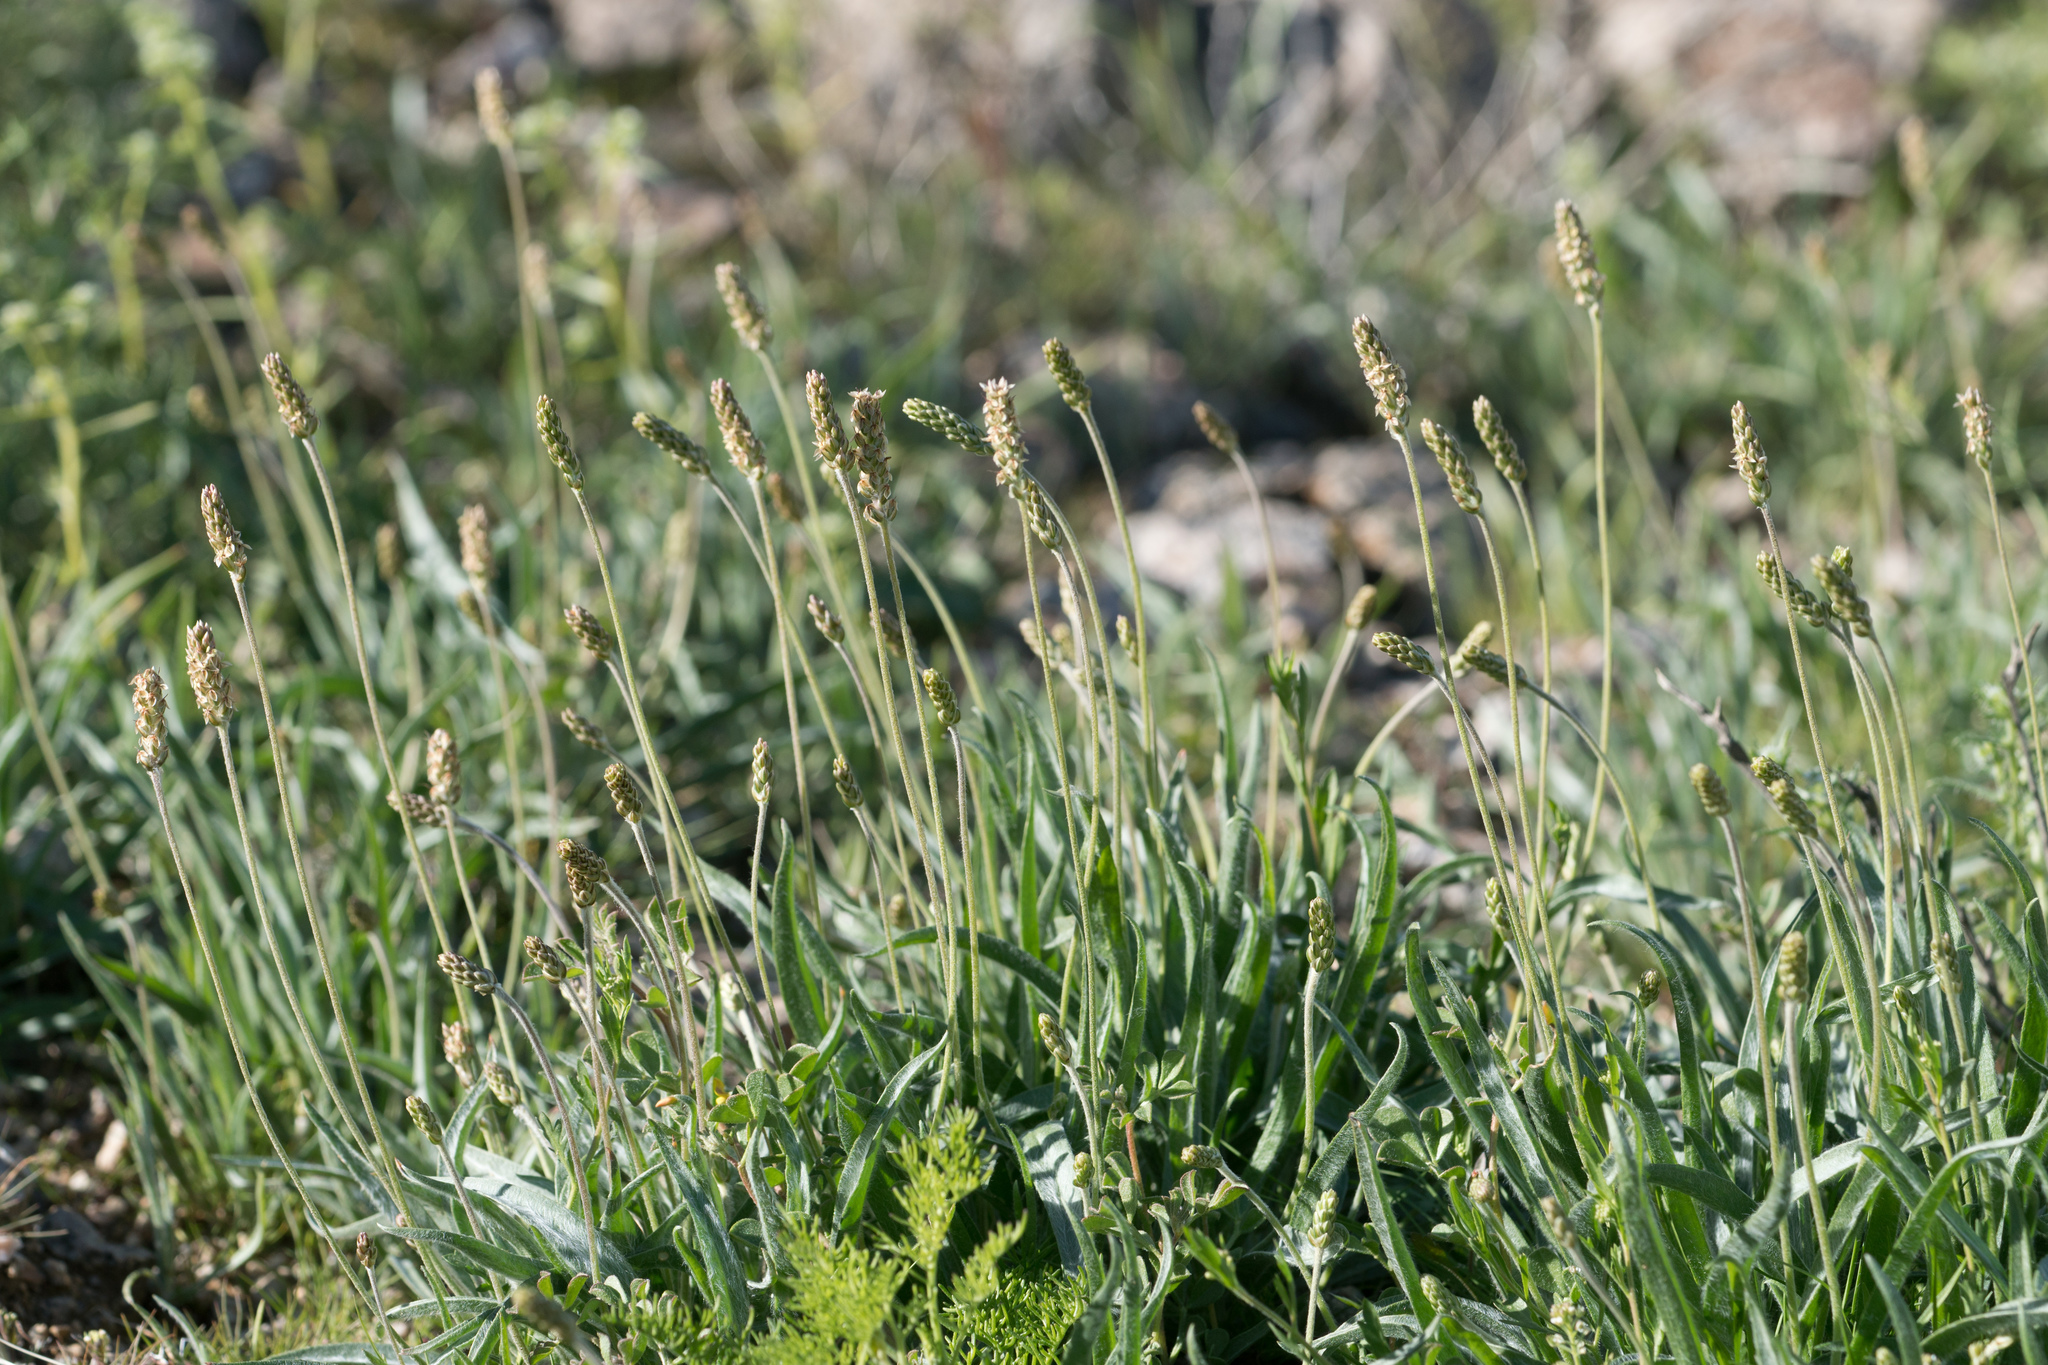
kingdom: Plantae
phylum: Tracheophyta
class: Magnoliopsida
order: Lamiales
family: Plantaginaceae
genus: Plantago
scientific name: Plantago ovata
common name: Blond plantain
